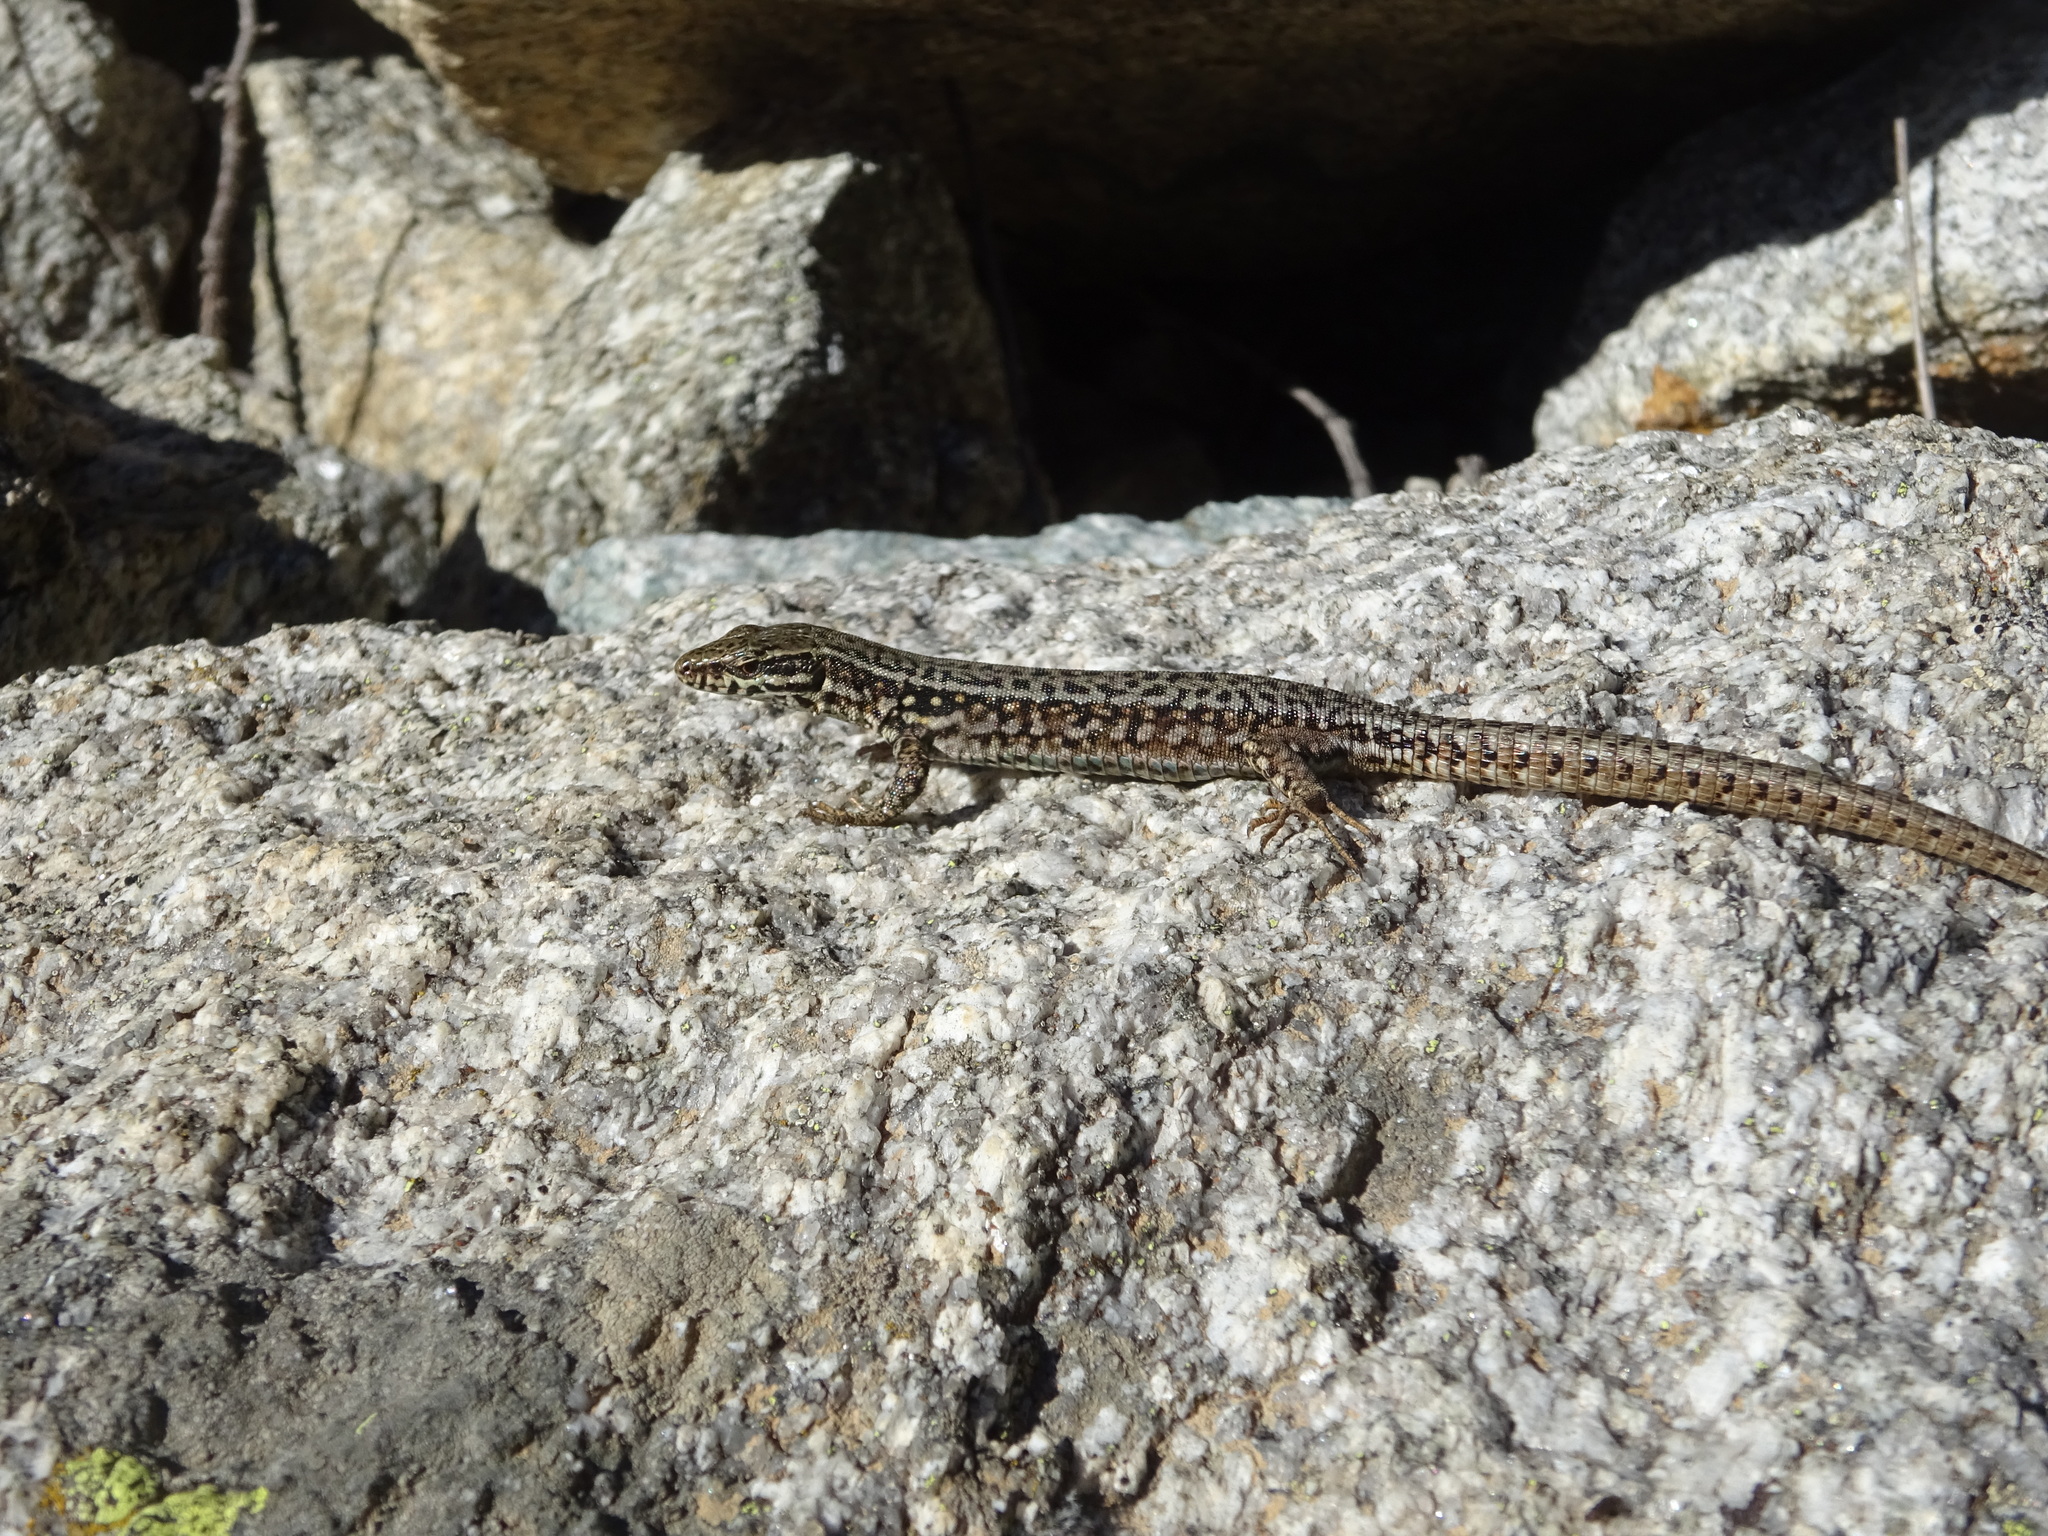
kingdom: Animalia
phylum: Chordata
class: Squamata
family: Lacertidae
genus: Podarcis
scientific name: Podarcis muralis
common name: Common wall lizard
